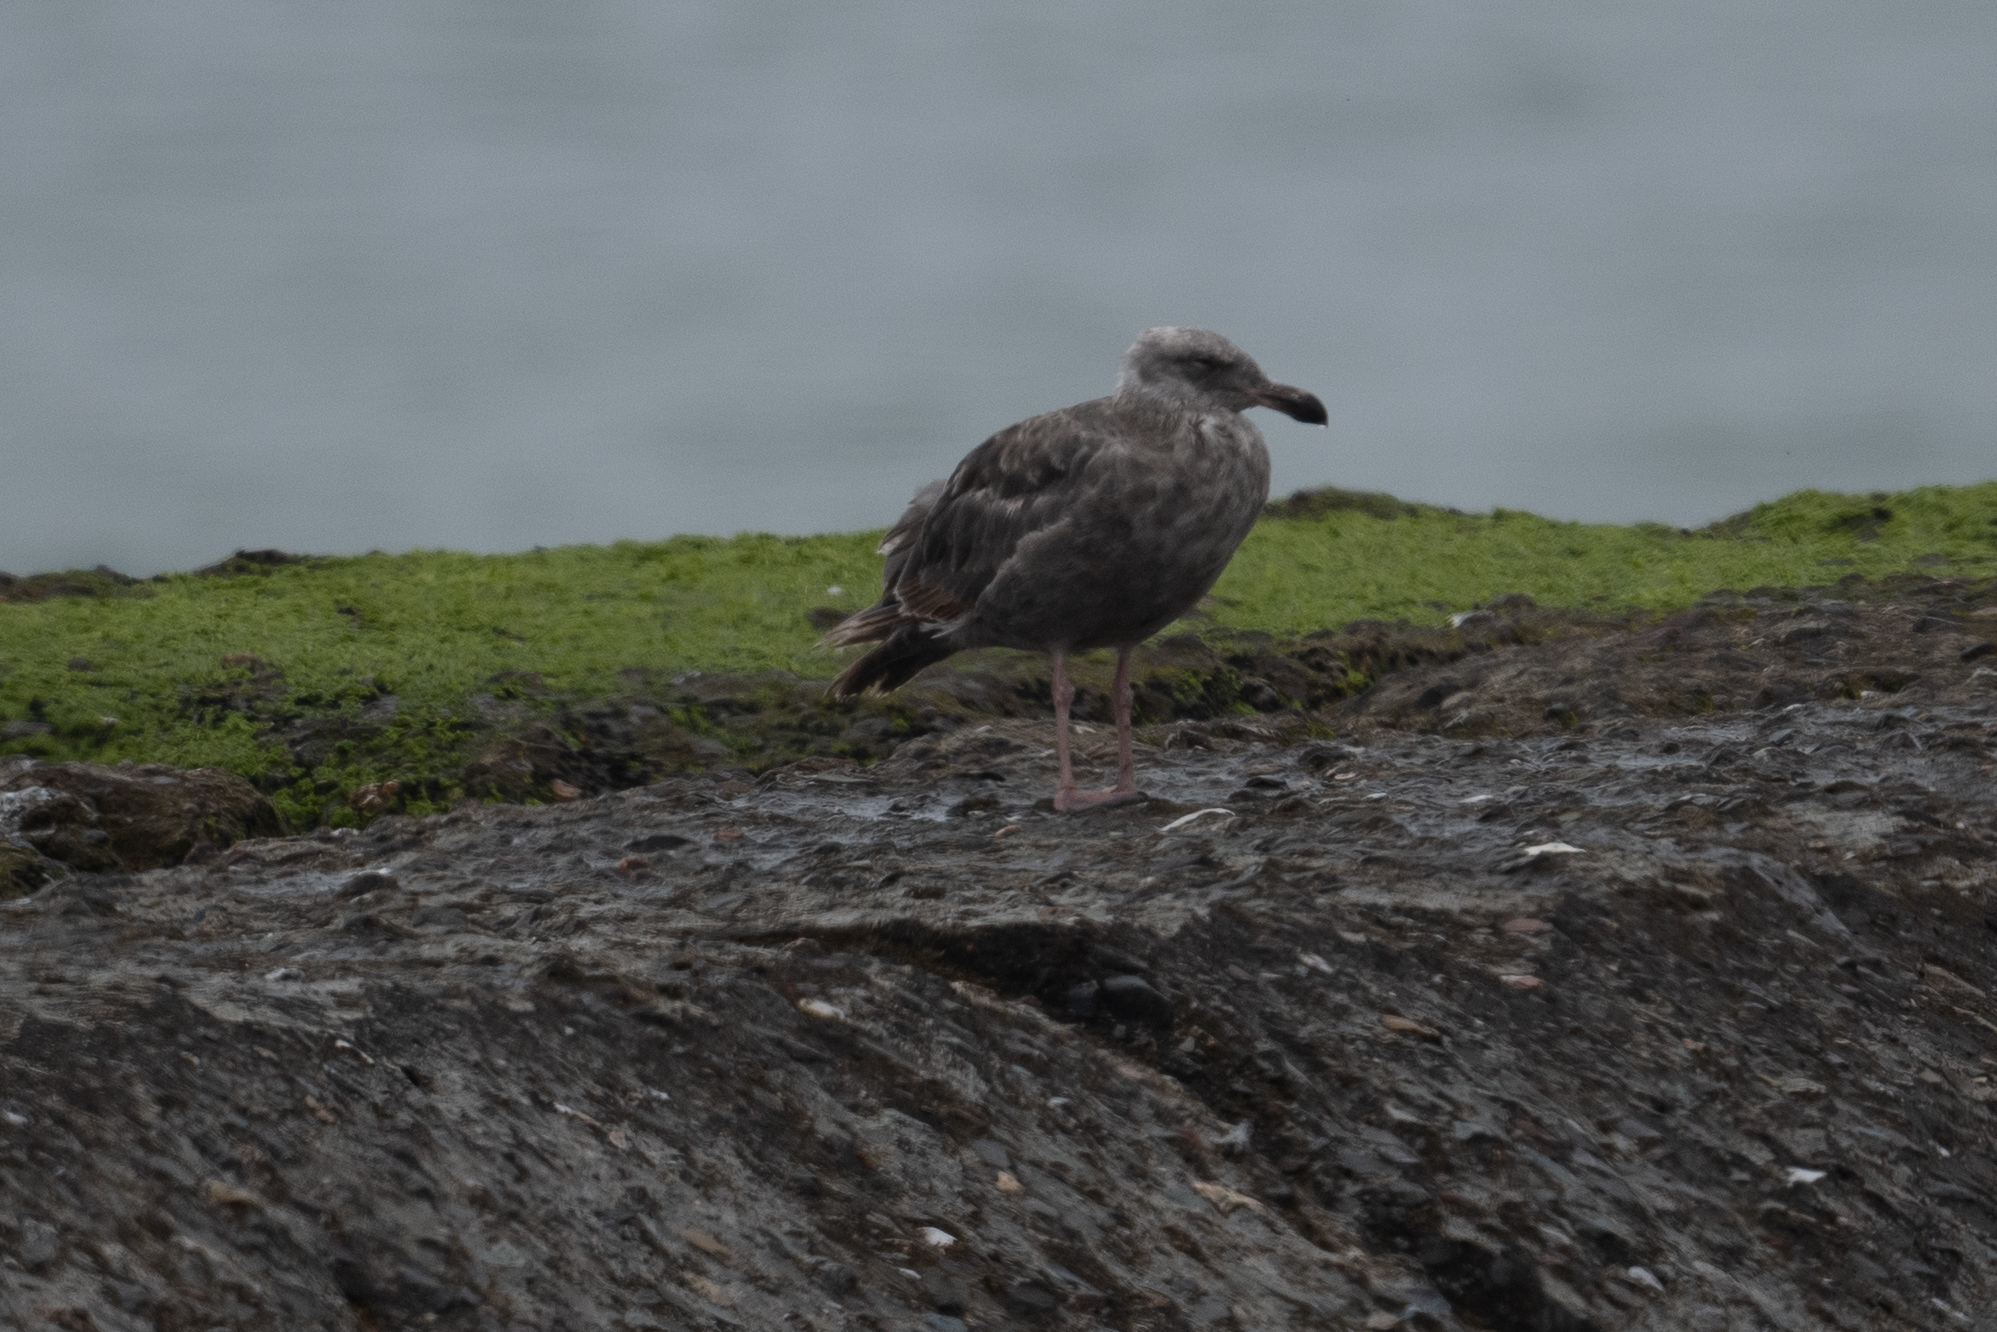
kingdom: Animalia
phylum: Chordata
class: Aves
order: Charadriiformes
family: Laridae
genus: Larus
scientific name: Larus occidentalis
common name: Western gull
